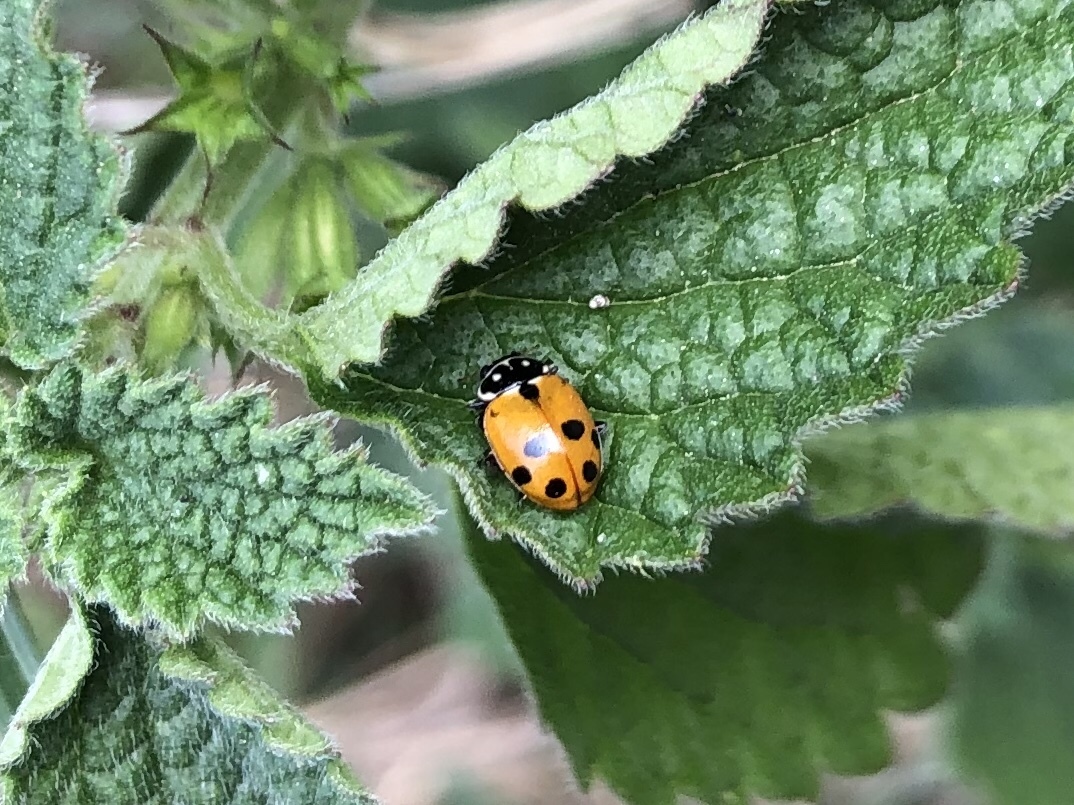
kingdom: Animalia
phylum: Arthropoda
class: Insecta
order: Coleoptera
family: Coccinellidae
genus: Hippodamia
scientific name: Hippodamia variegata
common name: Ladybird beetle
